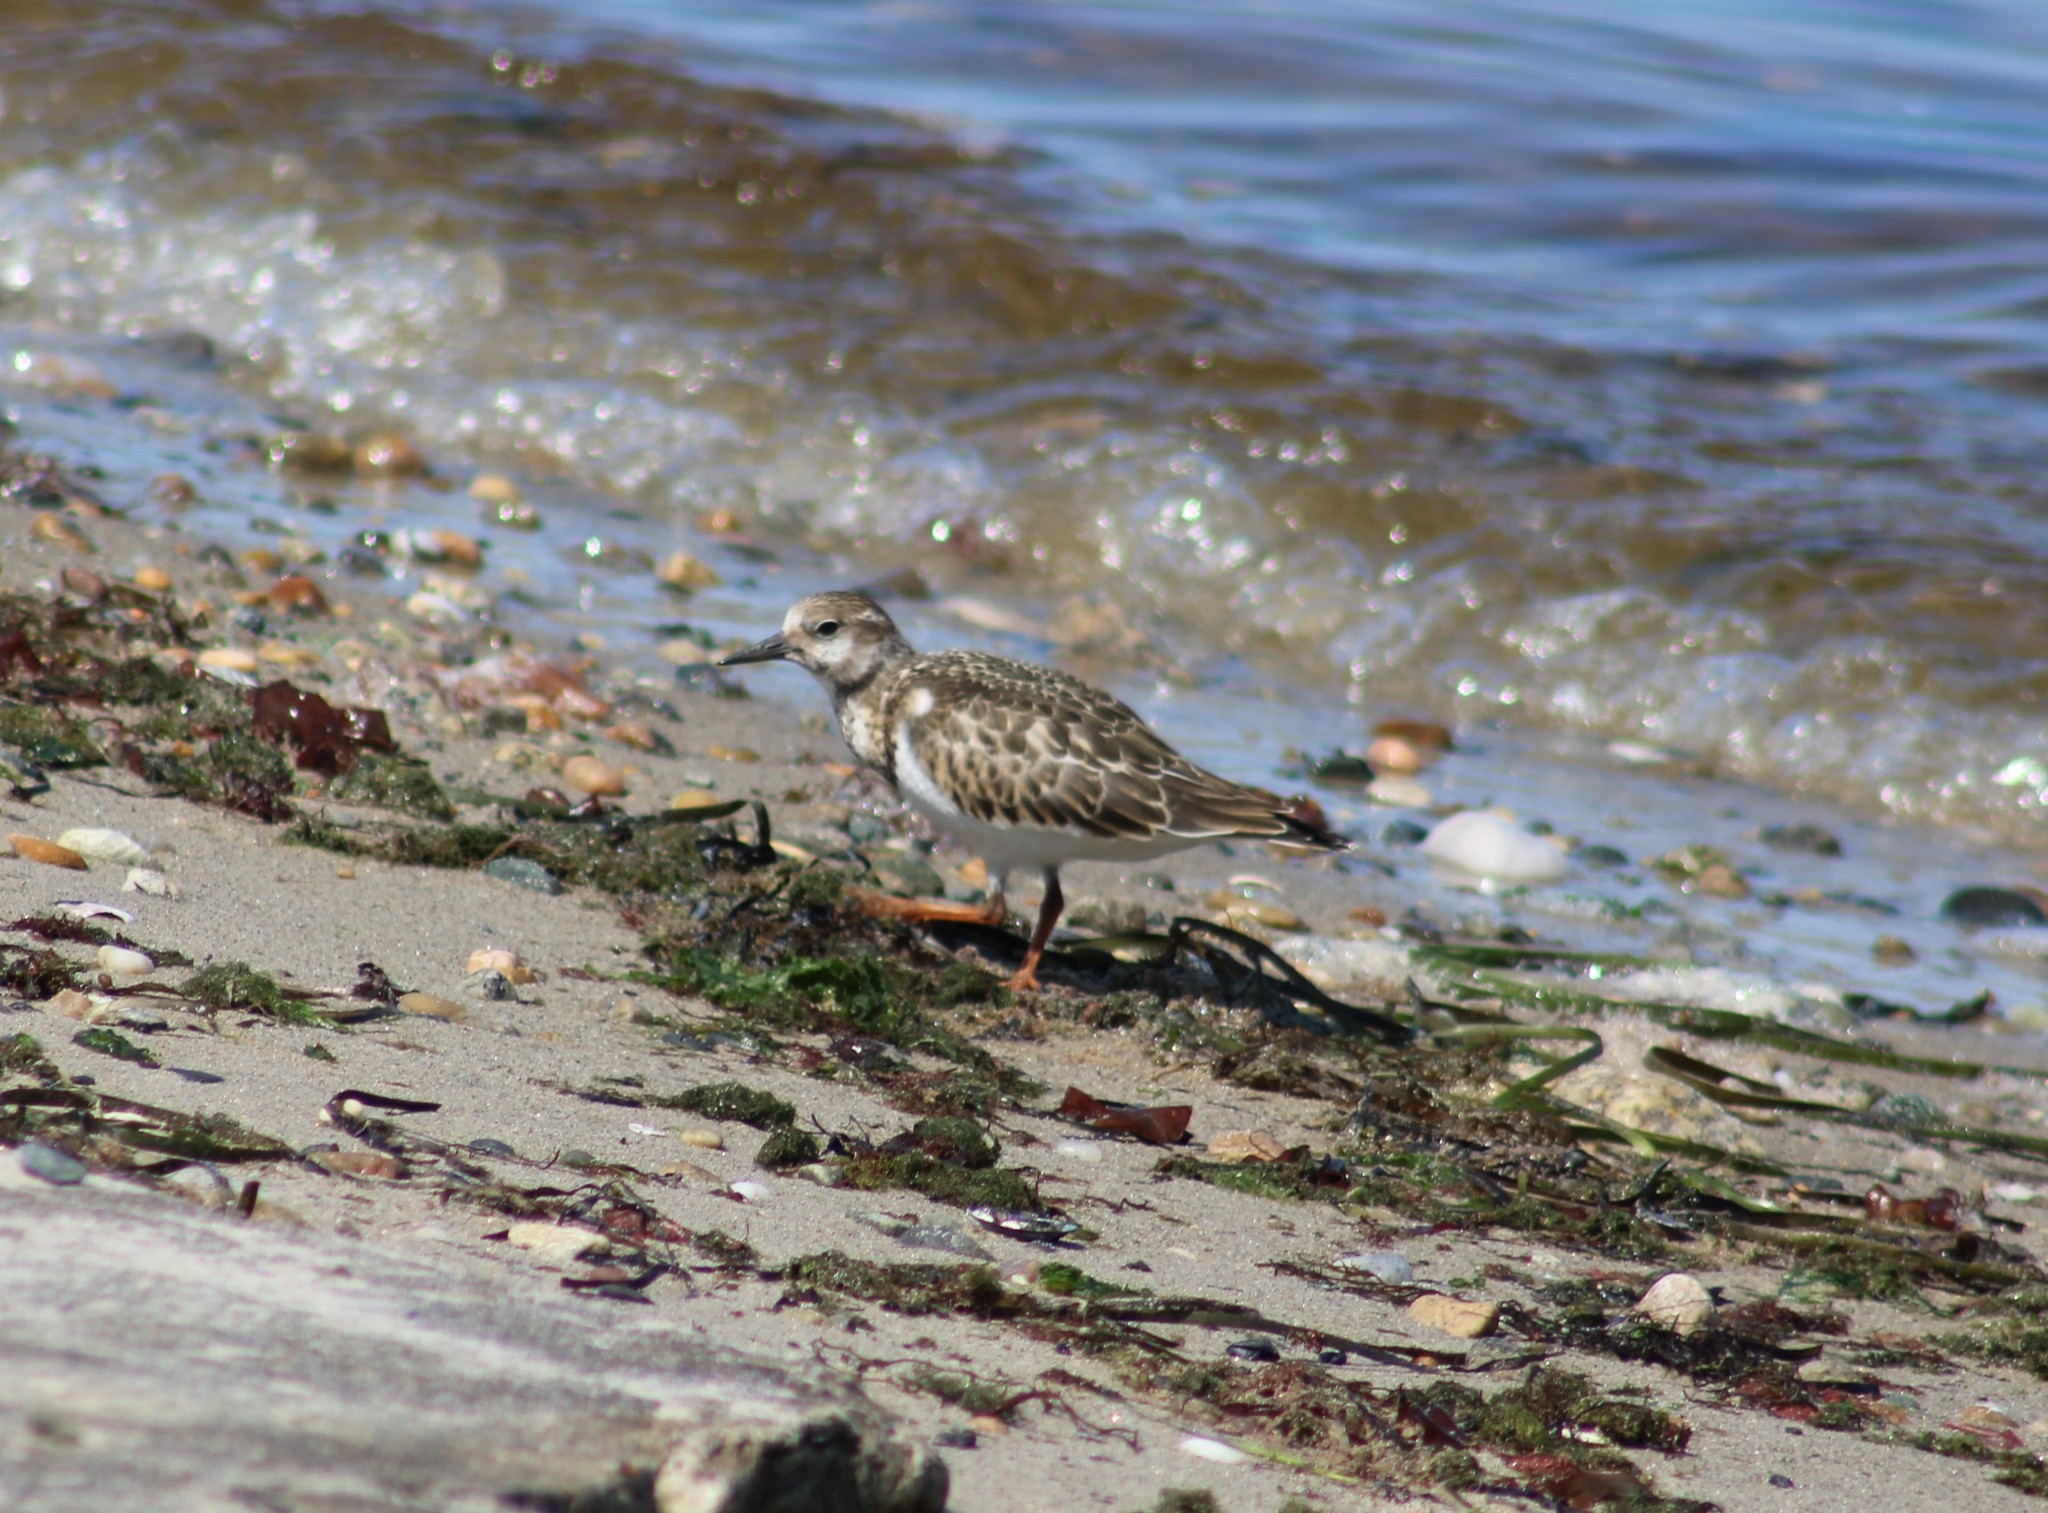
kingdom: Animalia
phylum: Chordata
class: Aves
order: Charadriiformes
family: Scolopacidae
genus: Arenaria
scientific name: Arenaria interpres
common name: Ruddy turnstone
